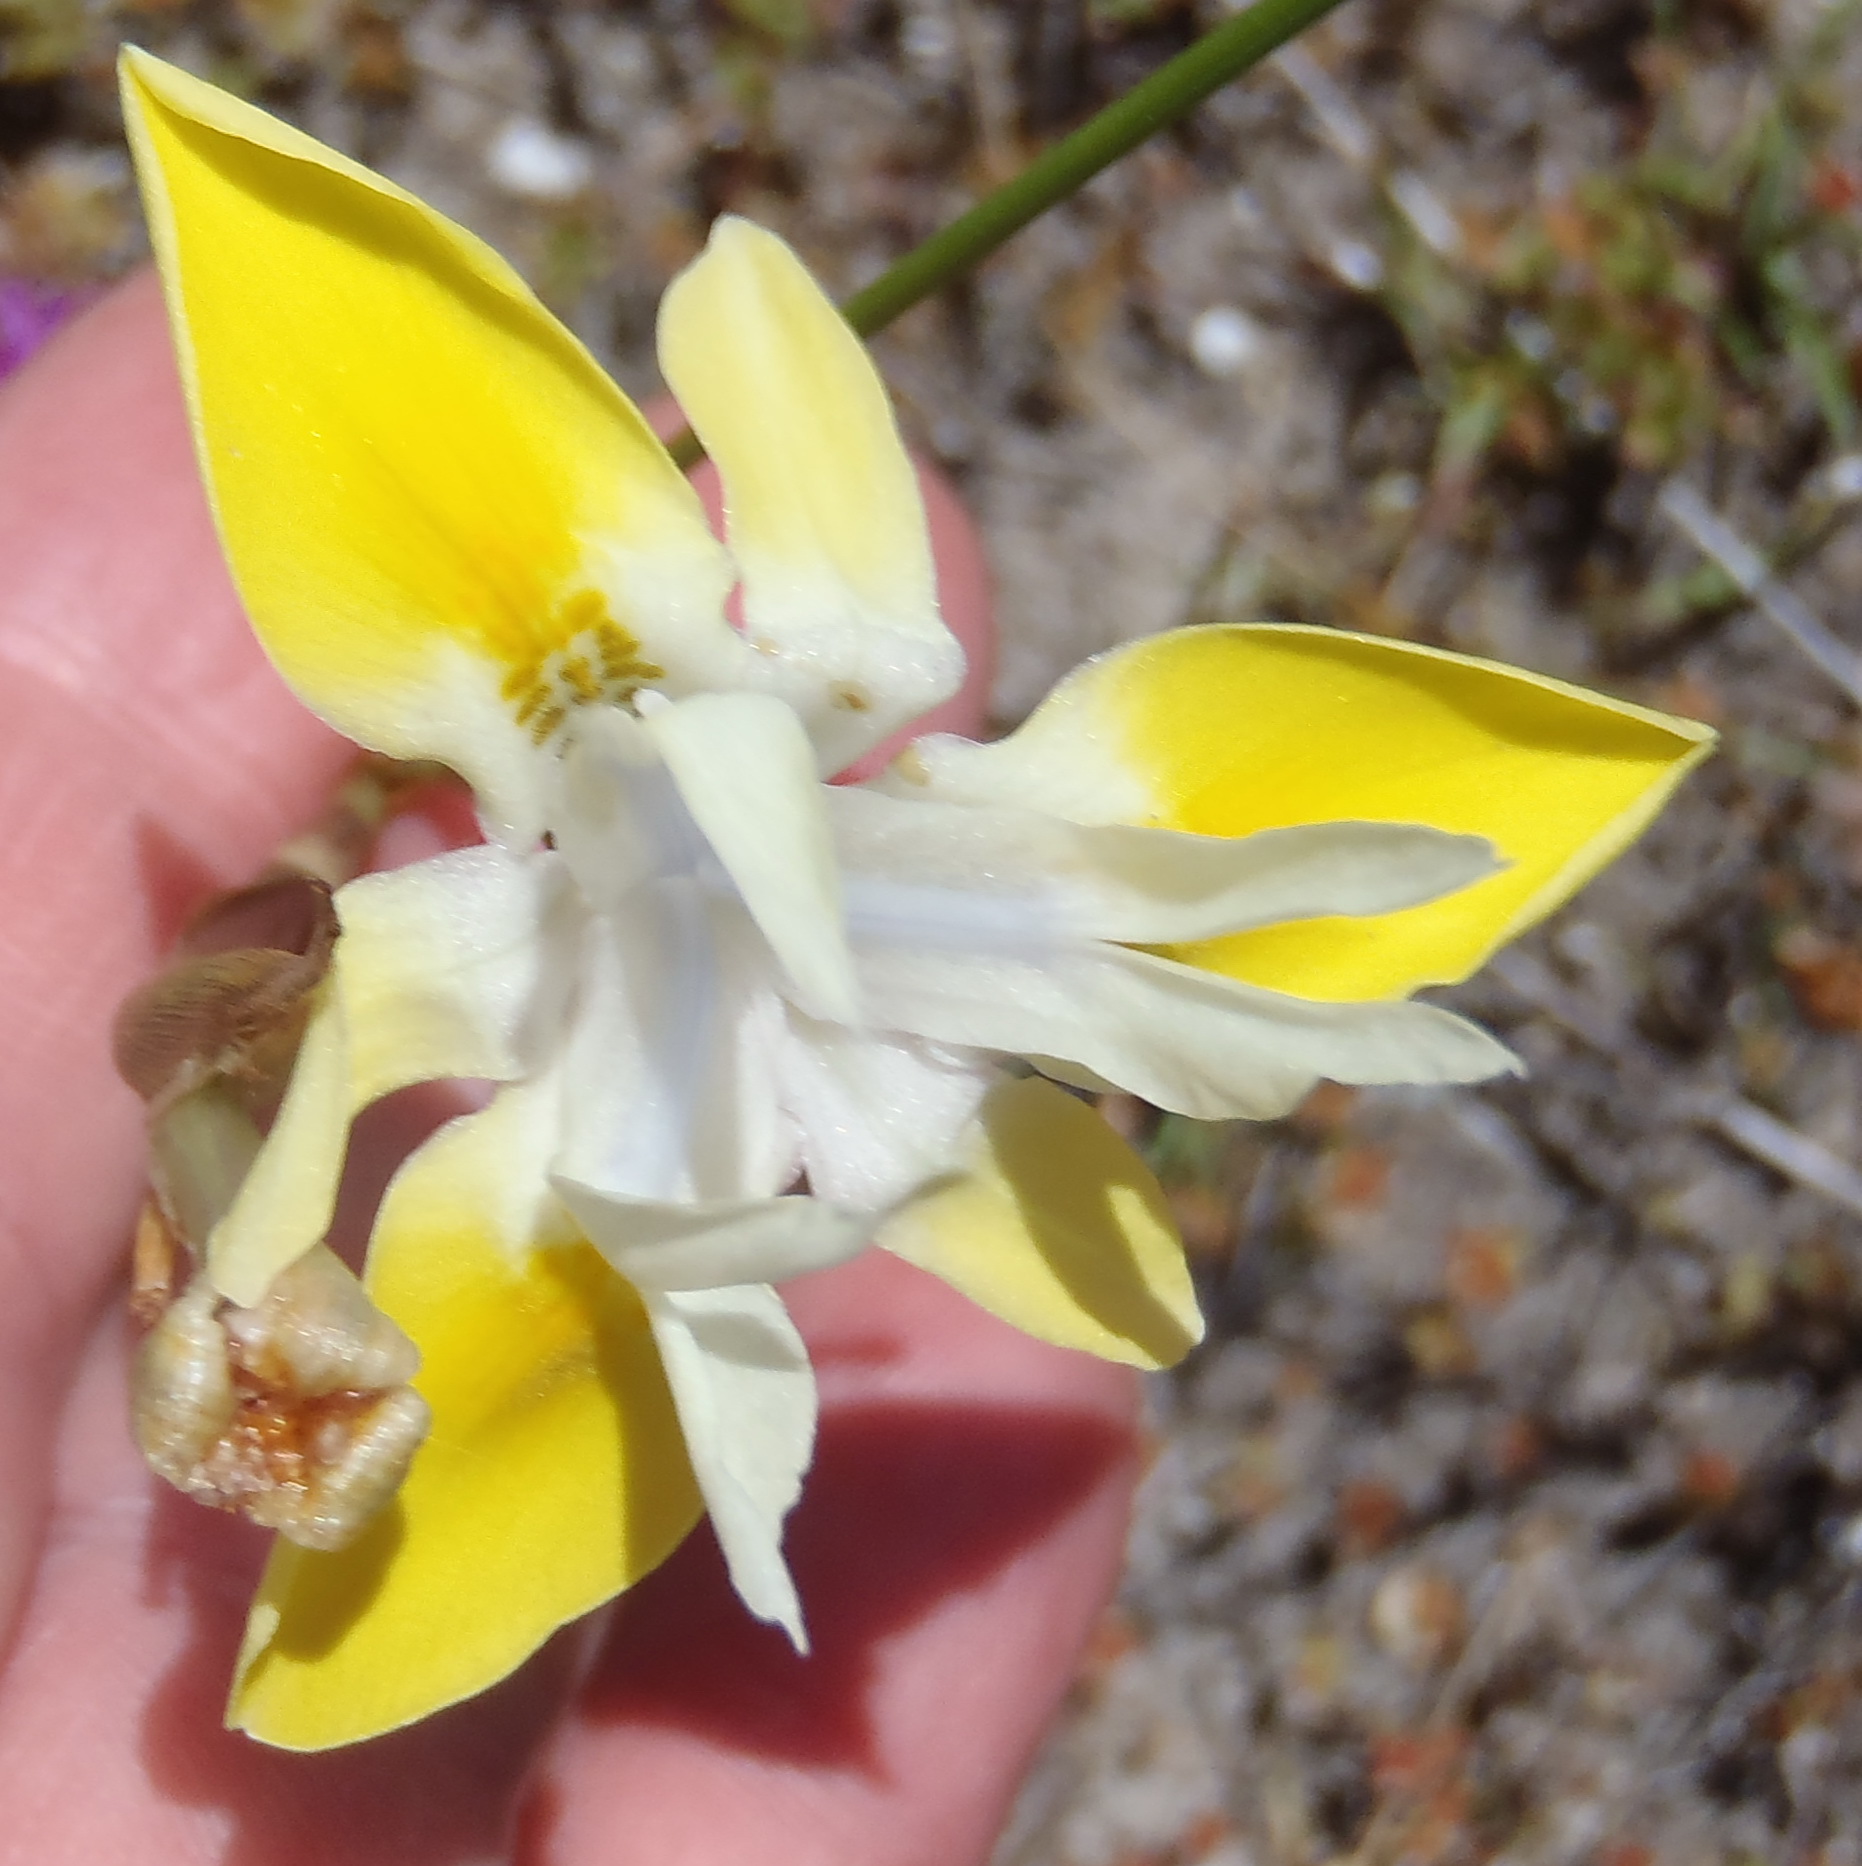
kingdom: Plantae
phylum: Tracheophyta
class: Liliopsida
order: Asparagales
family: Iridaceae
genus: Moraea
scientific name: Moraea fugax
